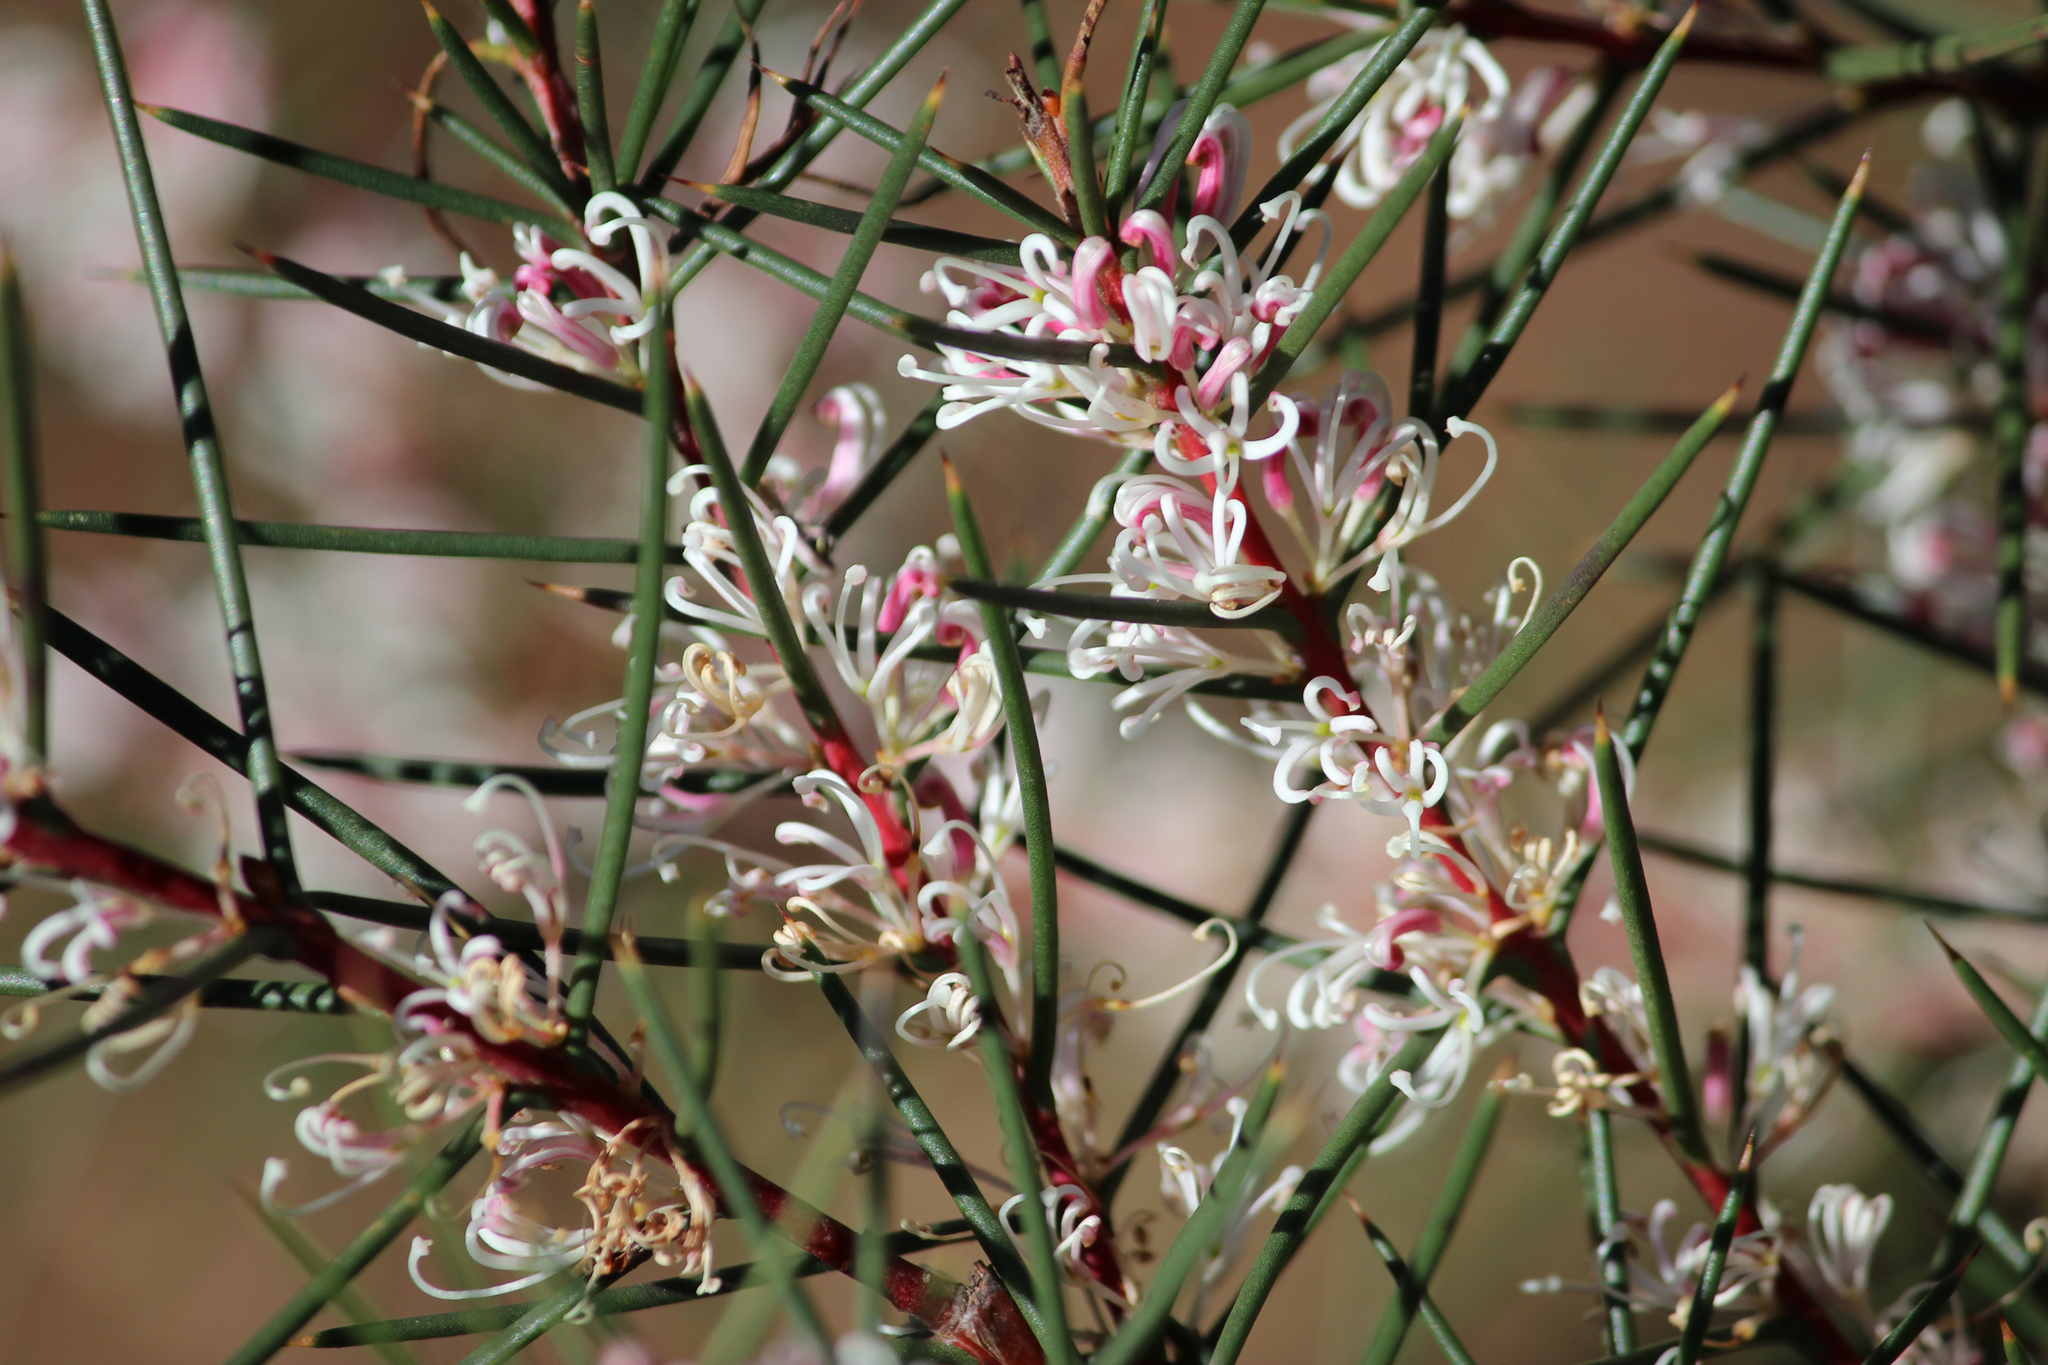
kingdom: Plantae
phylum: Tracheophyta
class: Magnoliopsida
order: Proteales
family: Proteaceae
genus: Hakea
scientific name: Hakea decurrens
